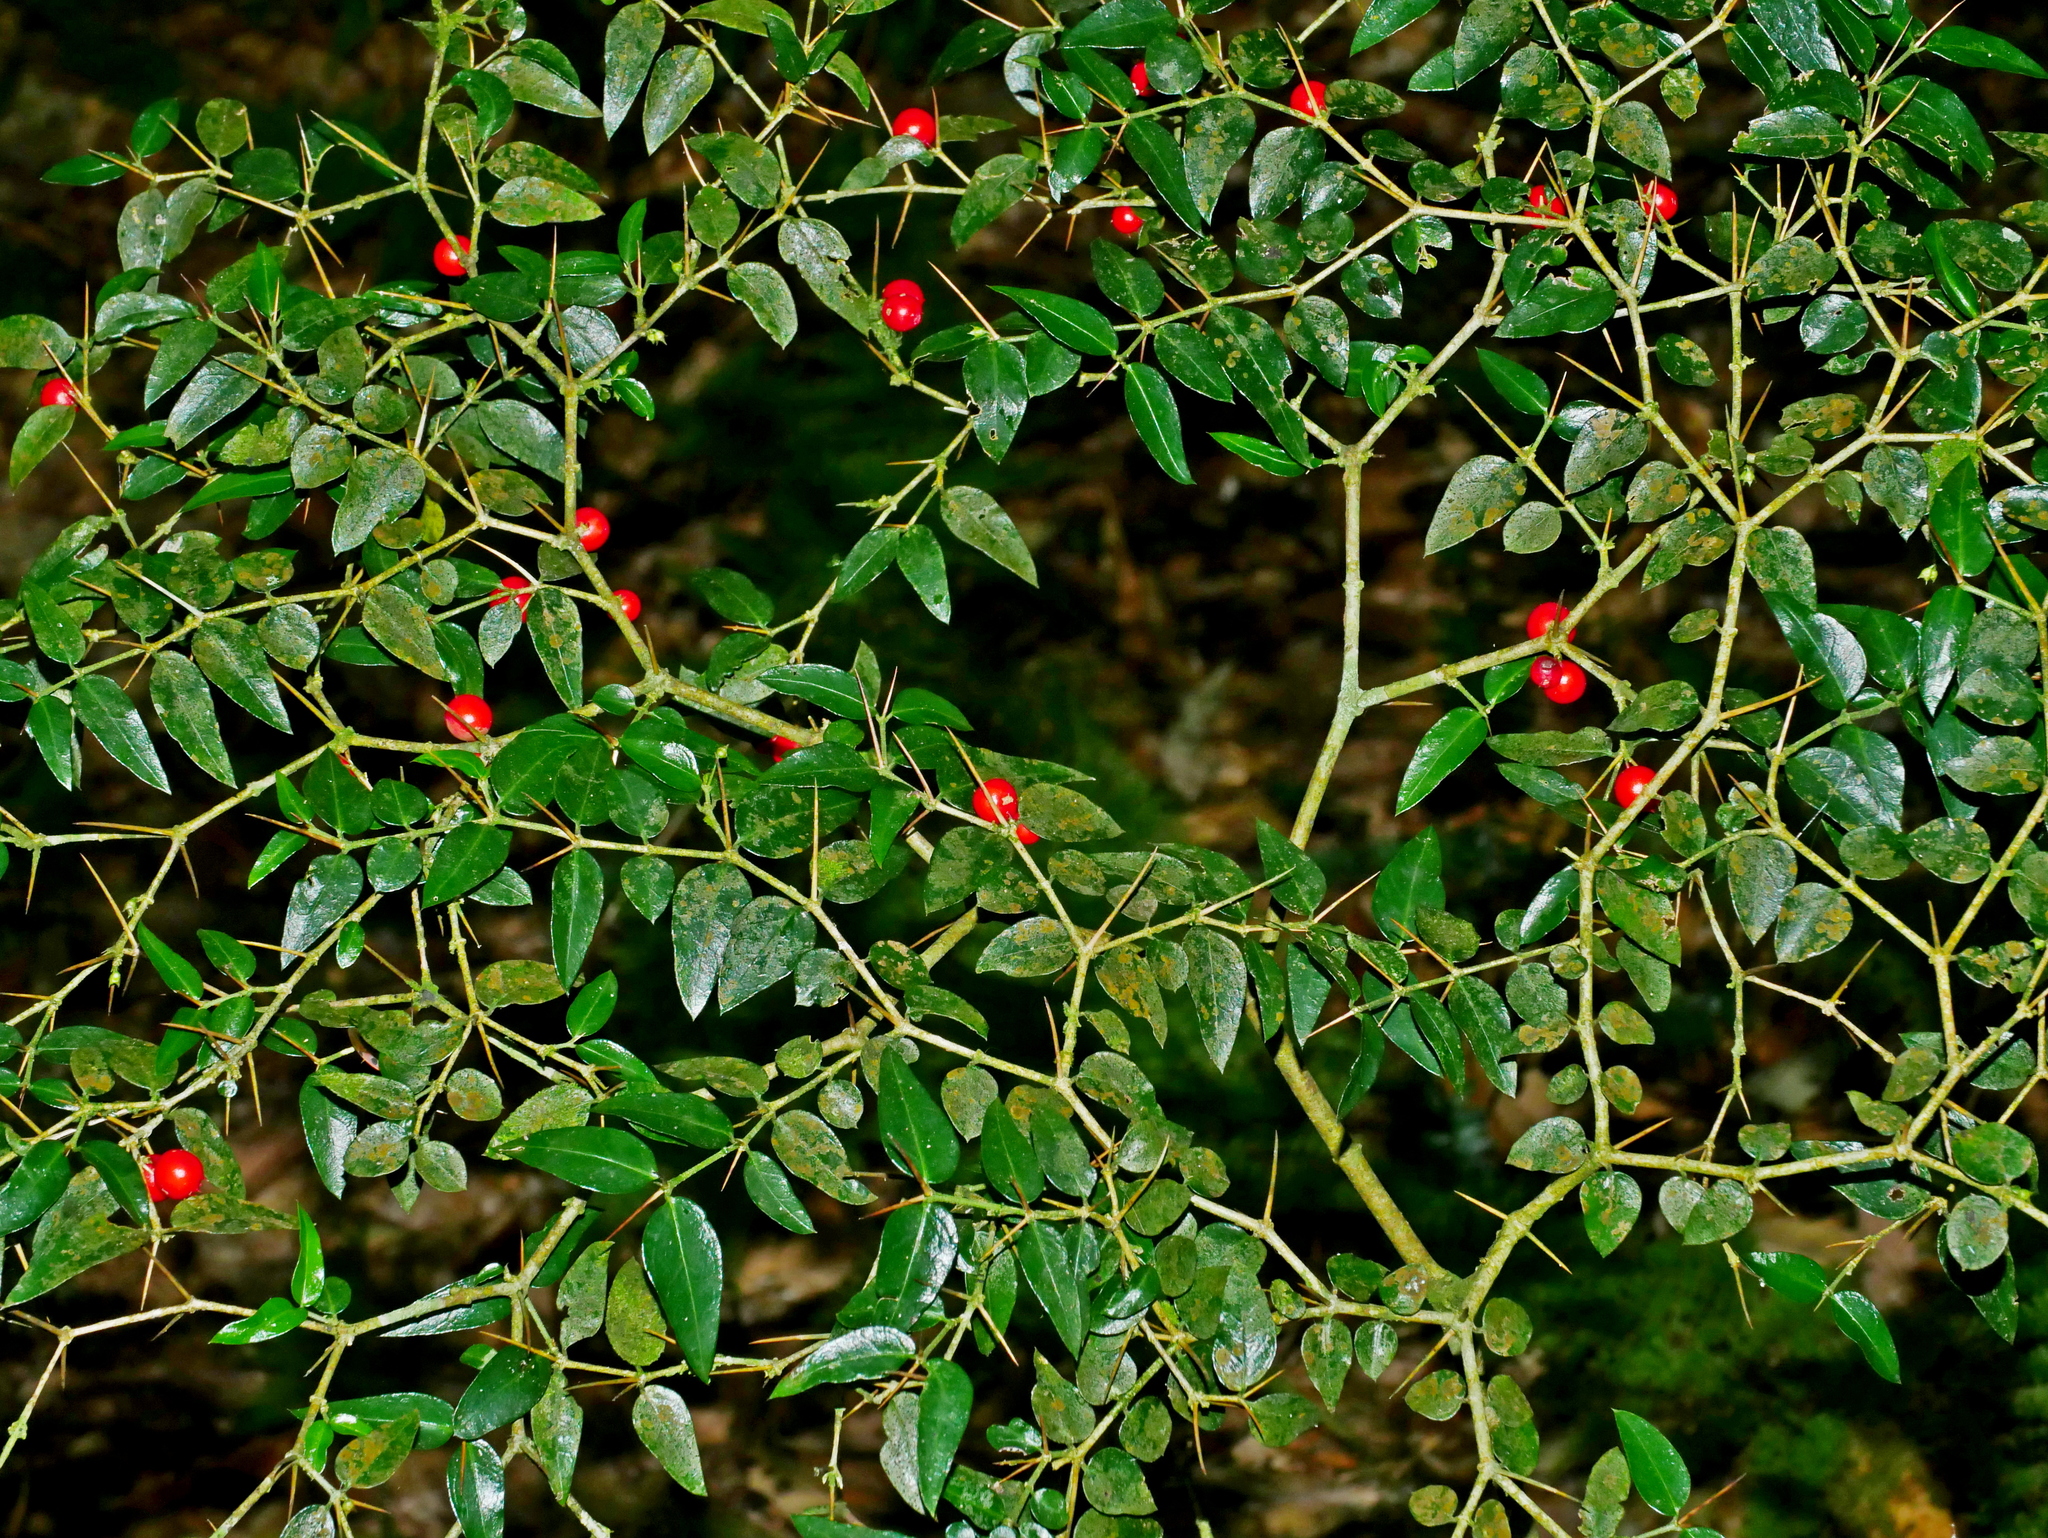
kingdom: Plantae
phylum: Tracheophyta
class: Magnoliopsida
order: Gentianales
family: Rubiaceae
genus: Damnacanthus
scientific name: Damnacanthus indicus
